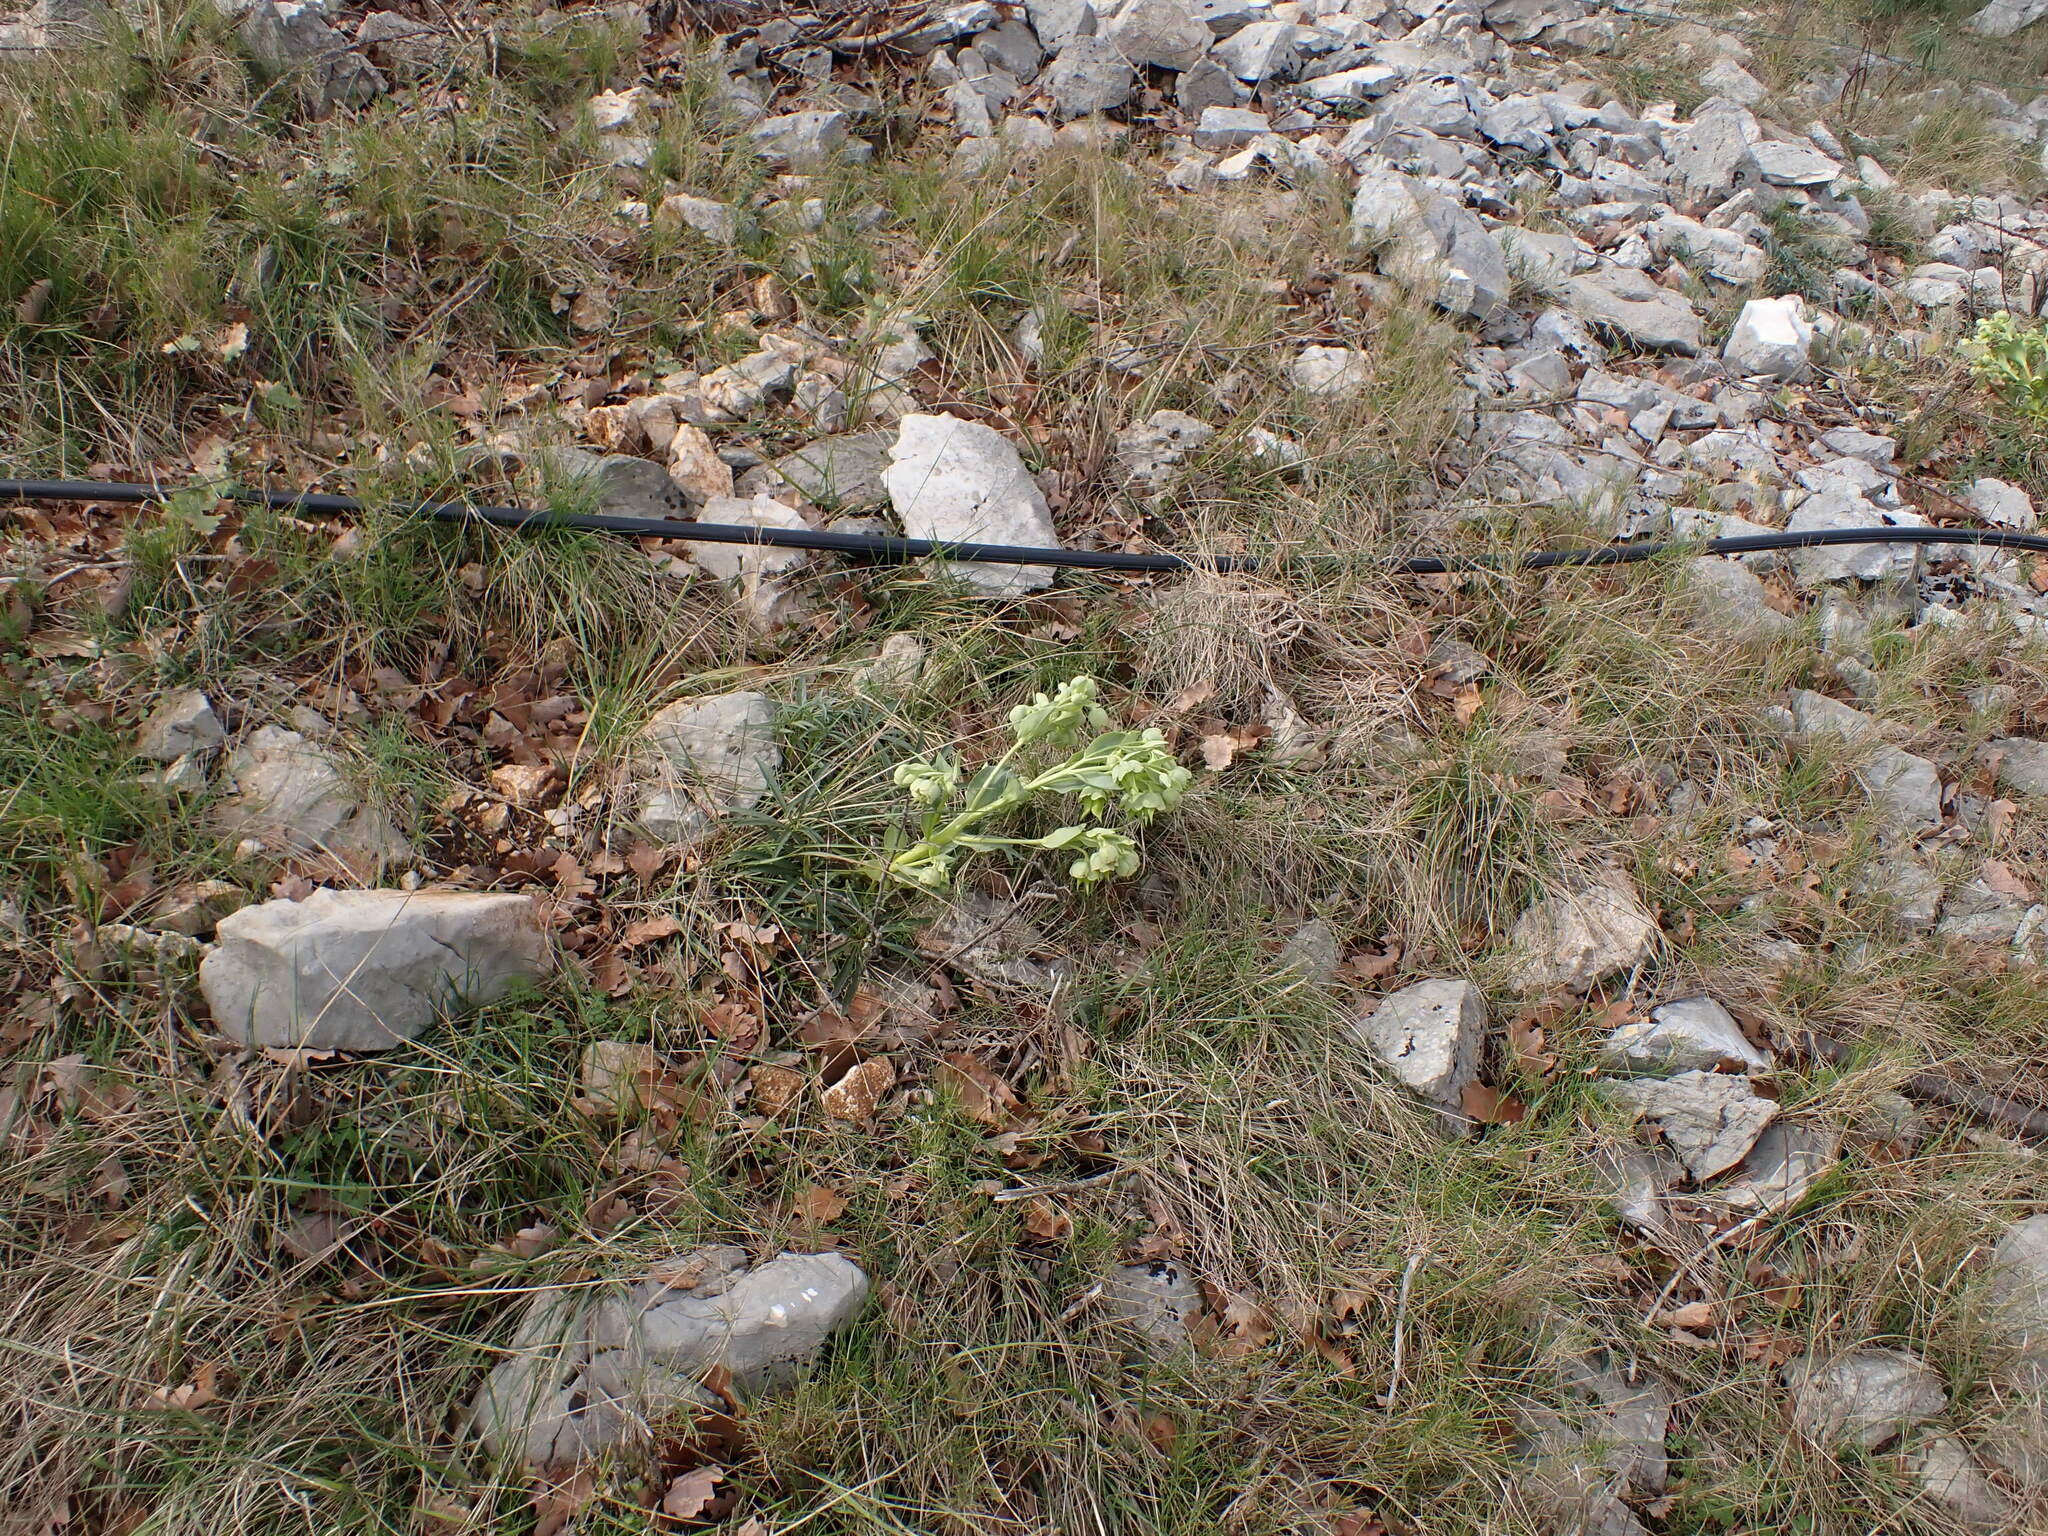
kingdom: Plantae
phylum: Tracheophyta
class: Magnoliopsida
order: Ranunculales
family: Ranunculaceae
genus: Helleborus
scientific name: Helleborus foetidus
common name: Stinking hellebore
